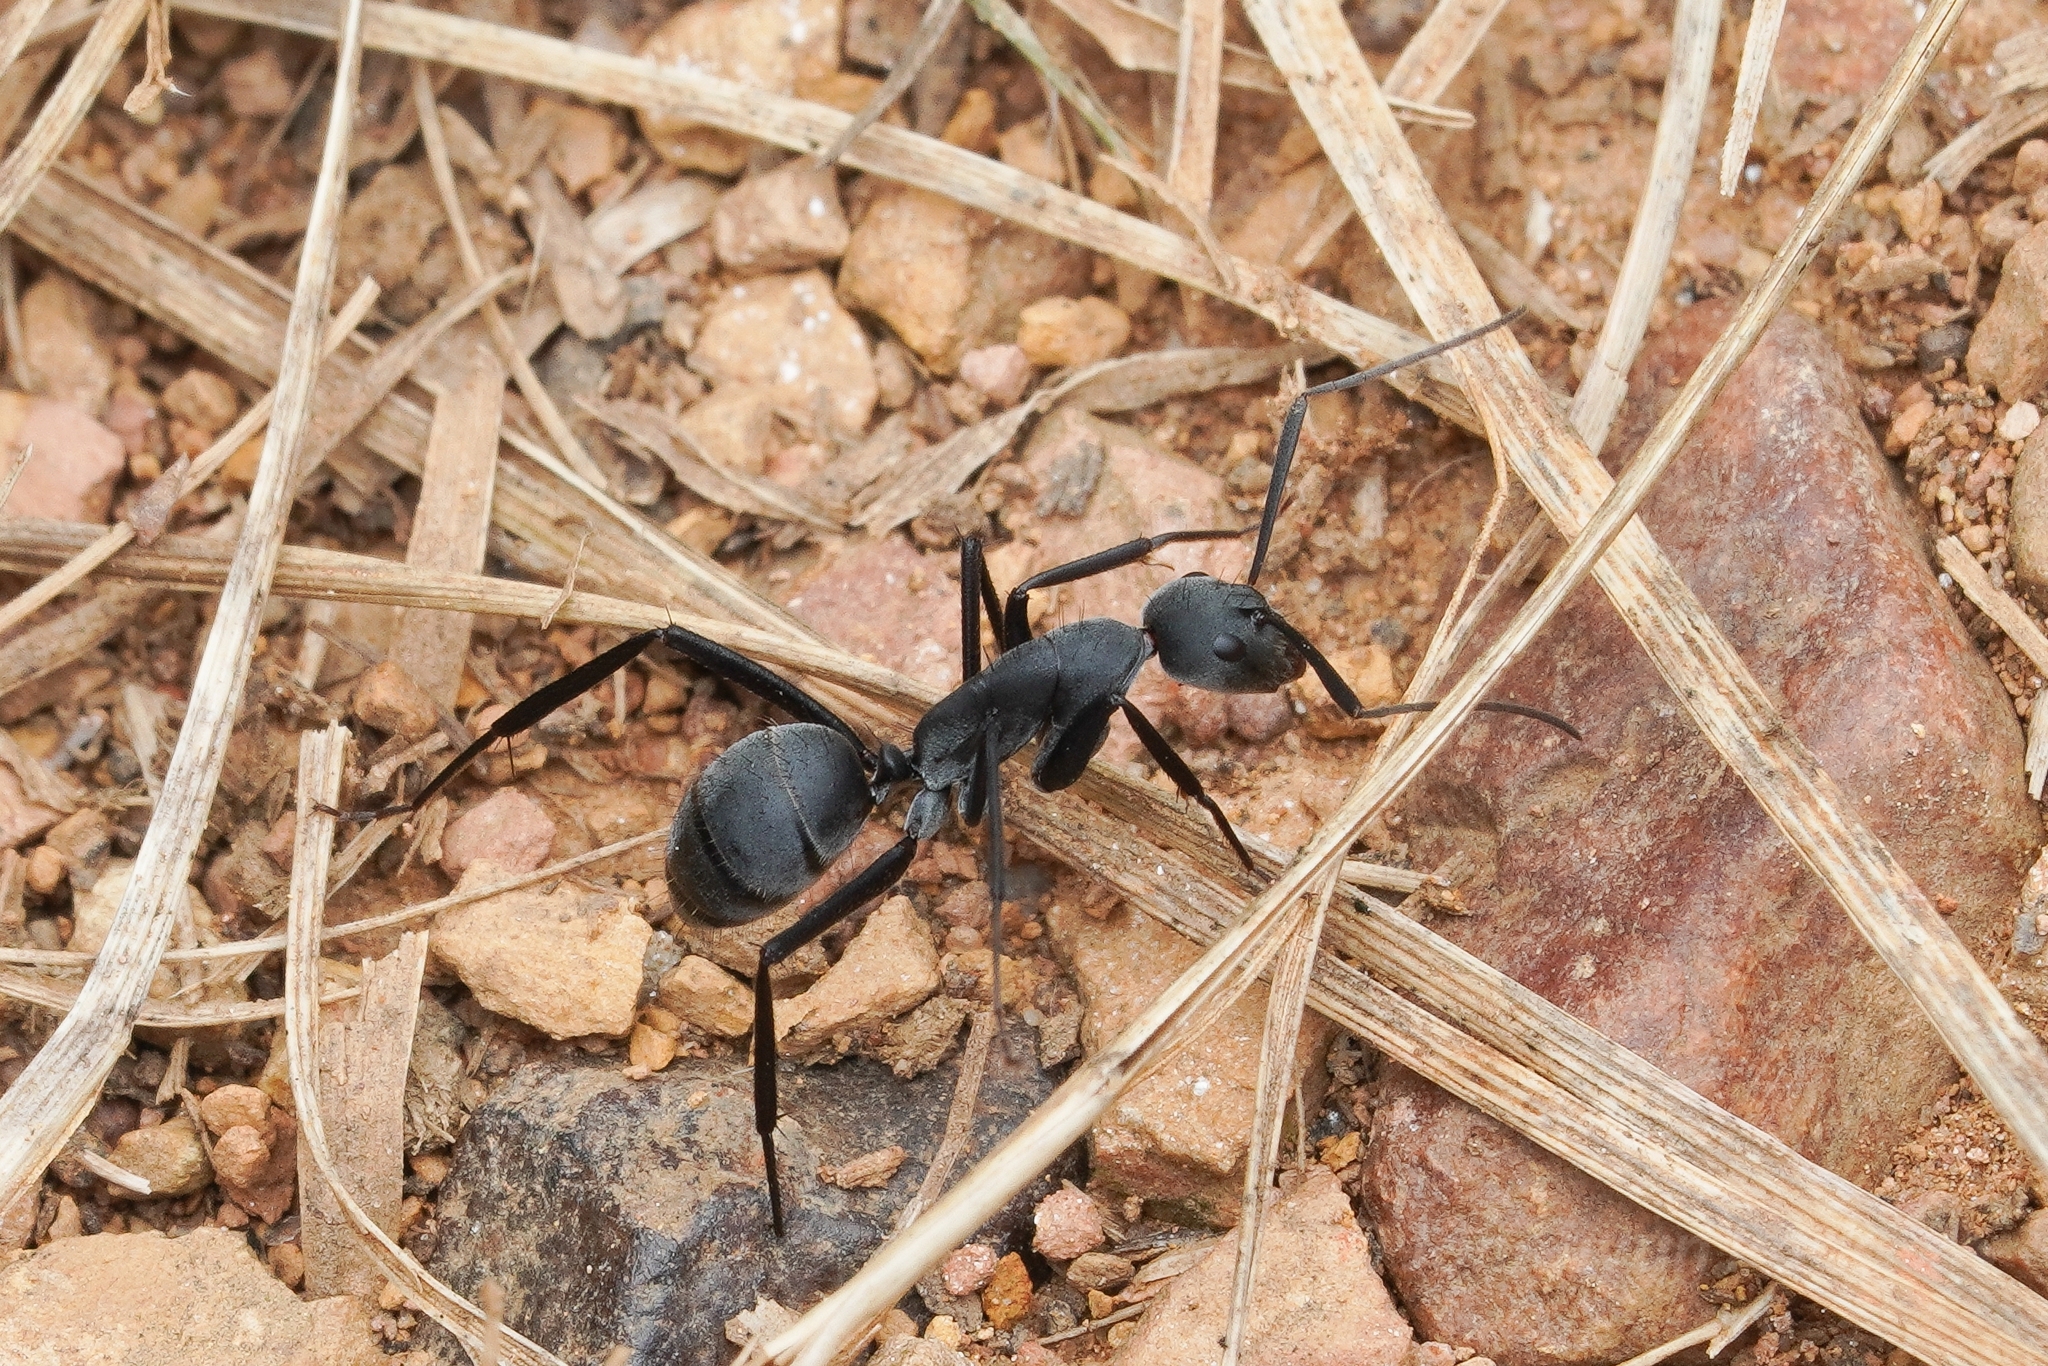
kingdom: Animalia
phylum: Arthropoda
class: Insecta
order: Hymenoptera
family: Formicidae
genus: Camponotus
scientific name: Camponotus eugeniae
